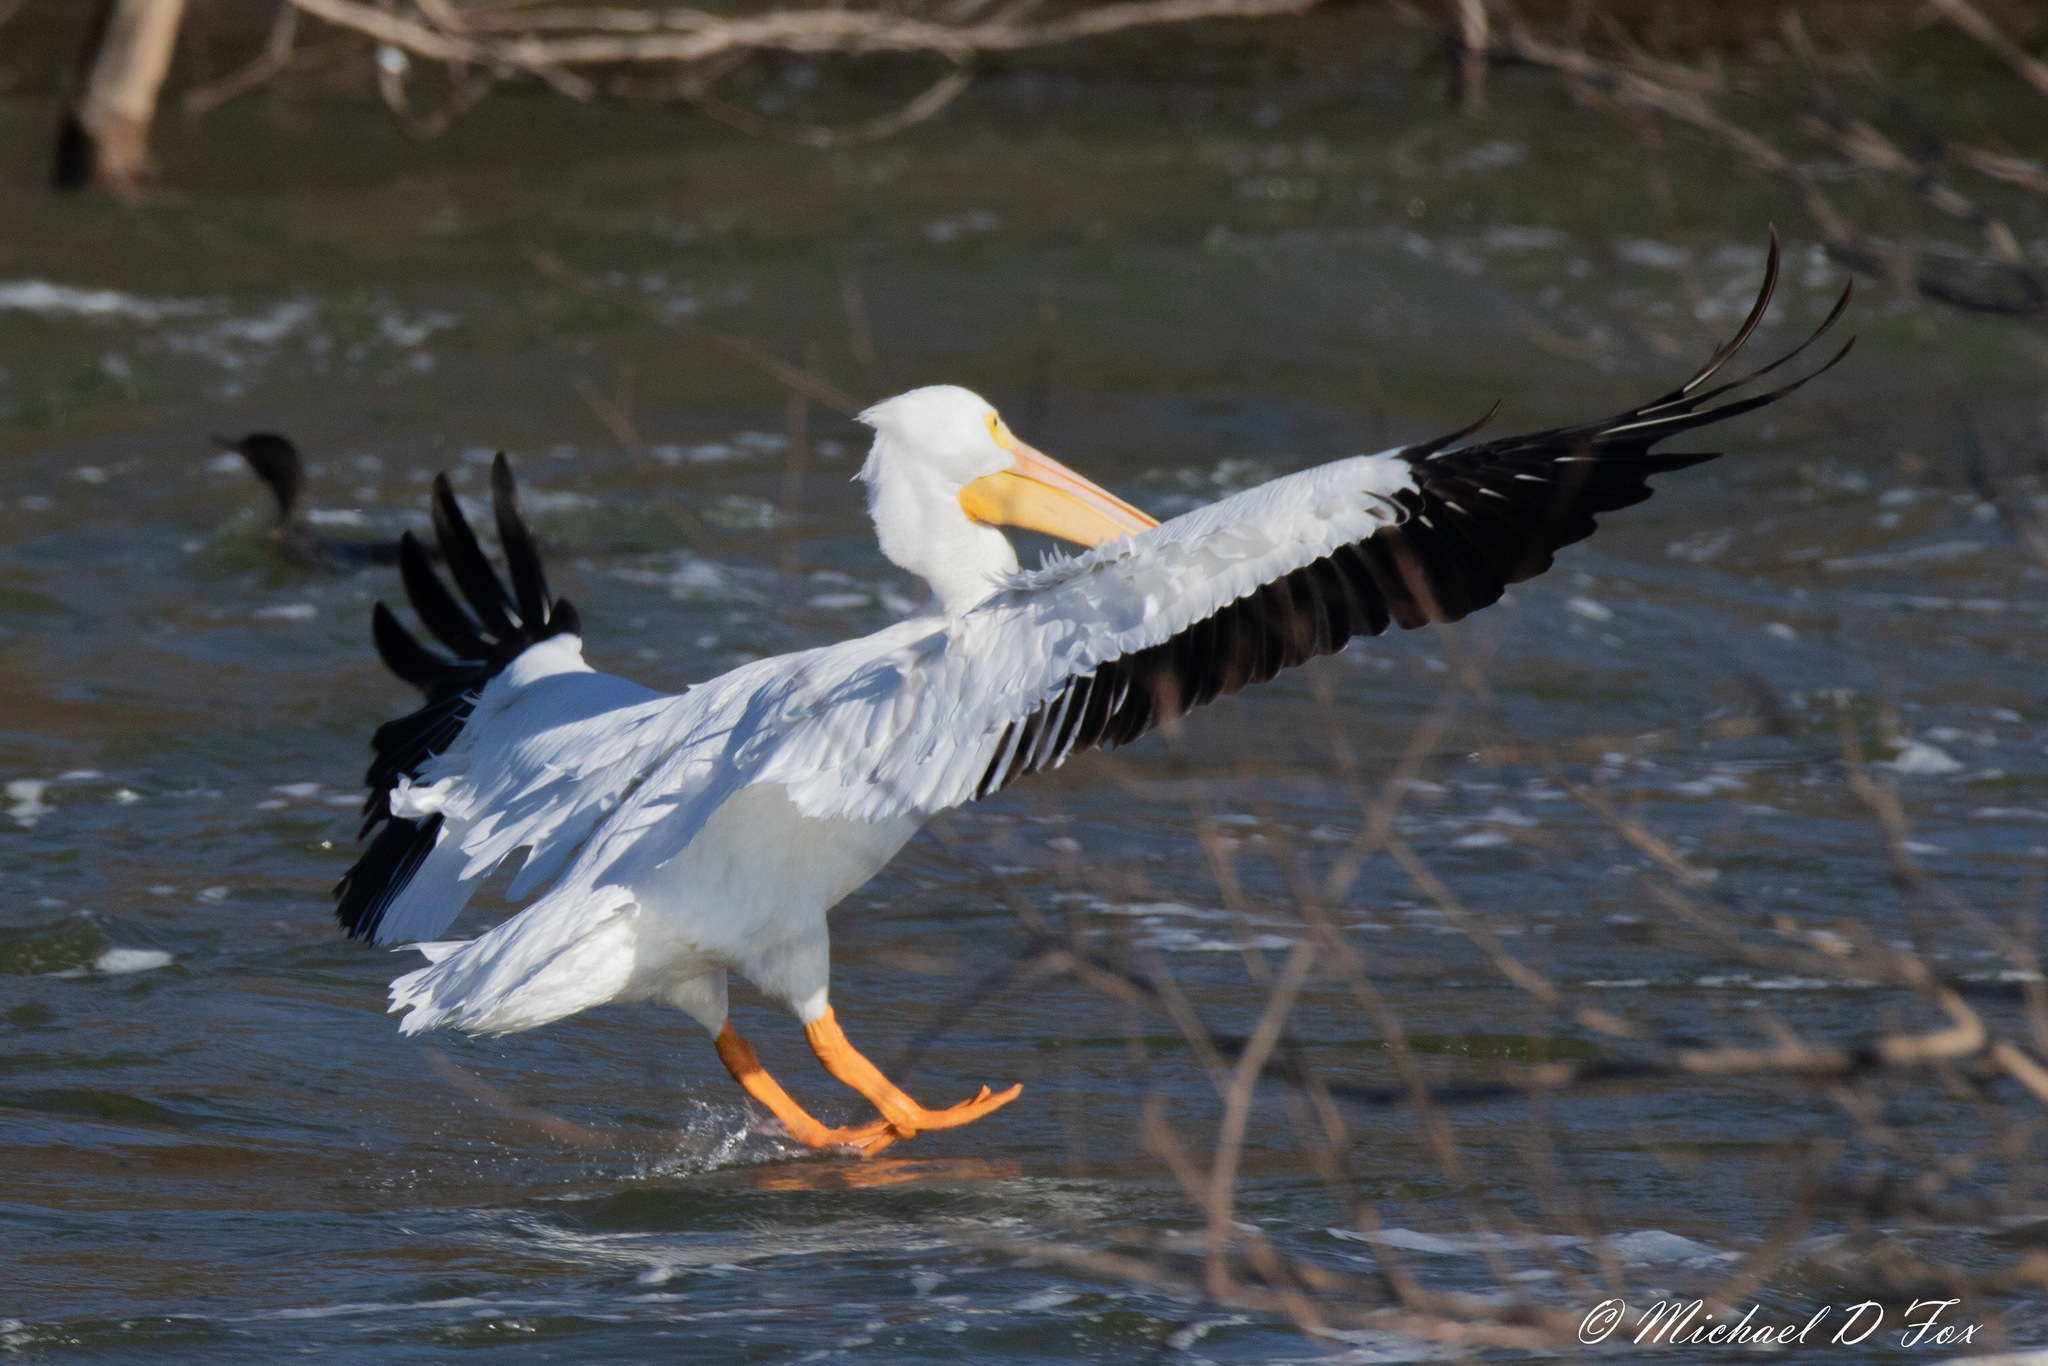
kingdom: Animalia
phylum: Chordata
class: Aves
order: Pelecaniformes
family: Pelecanidae
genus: Pelecanus
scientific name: Pelecanus erythrorhynchos
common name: American white pelican
